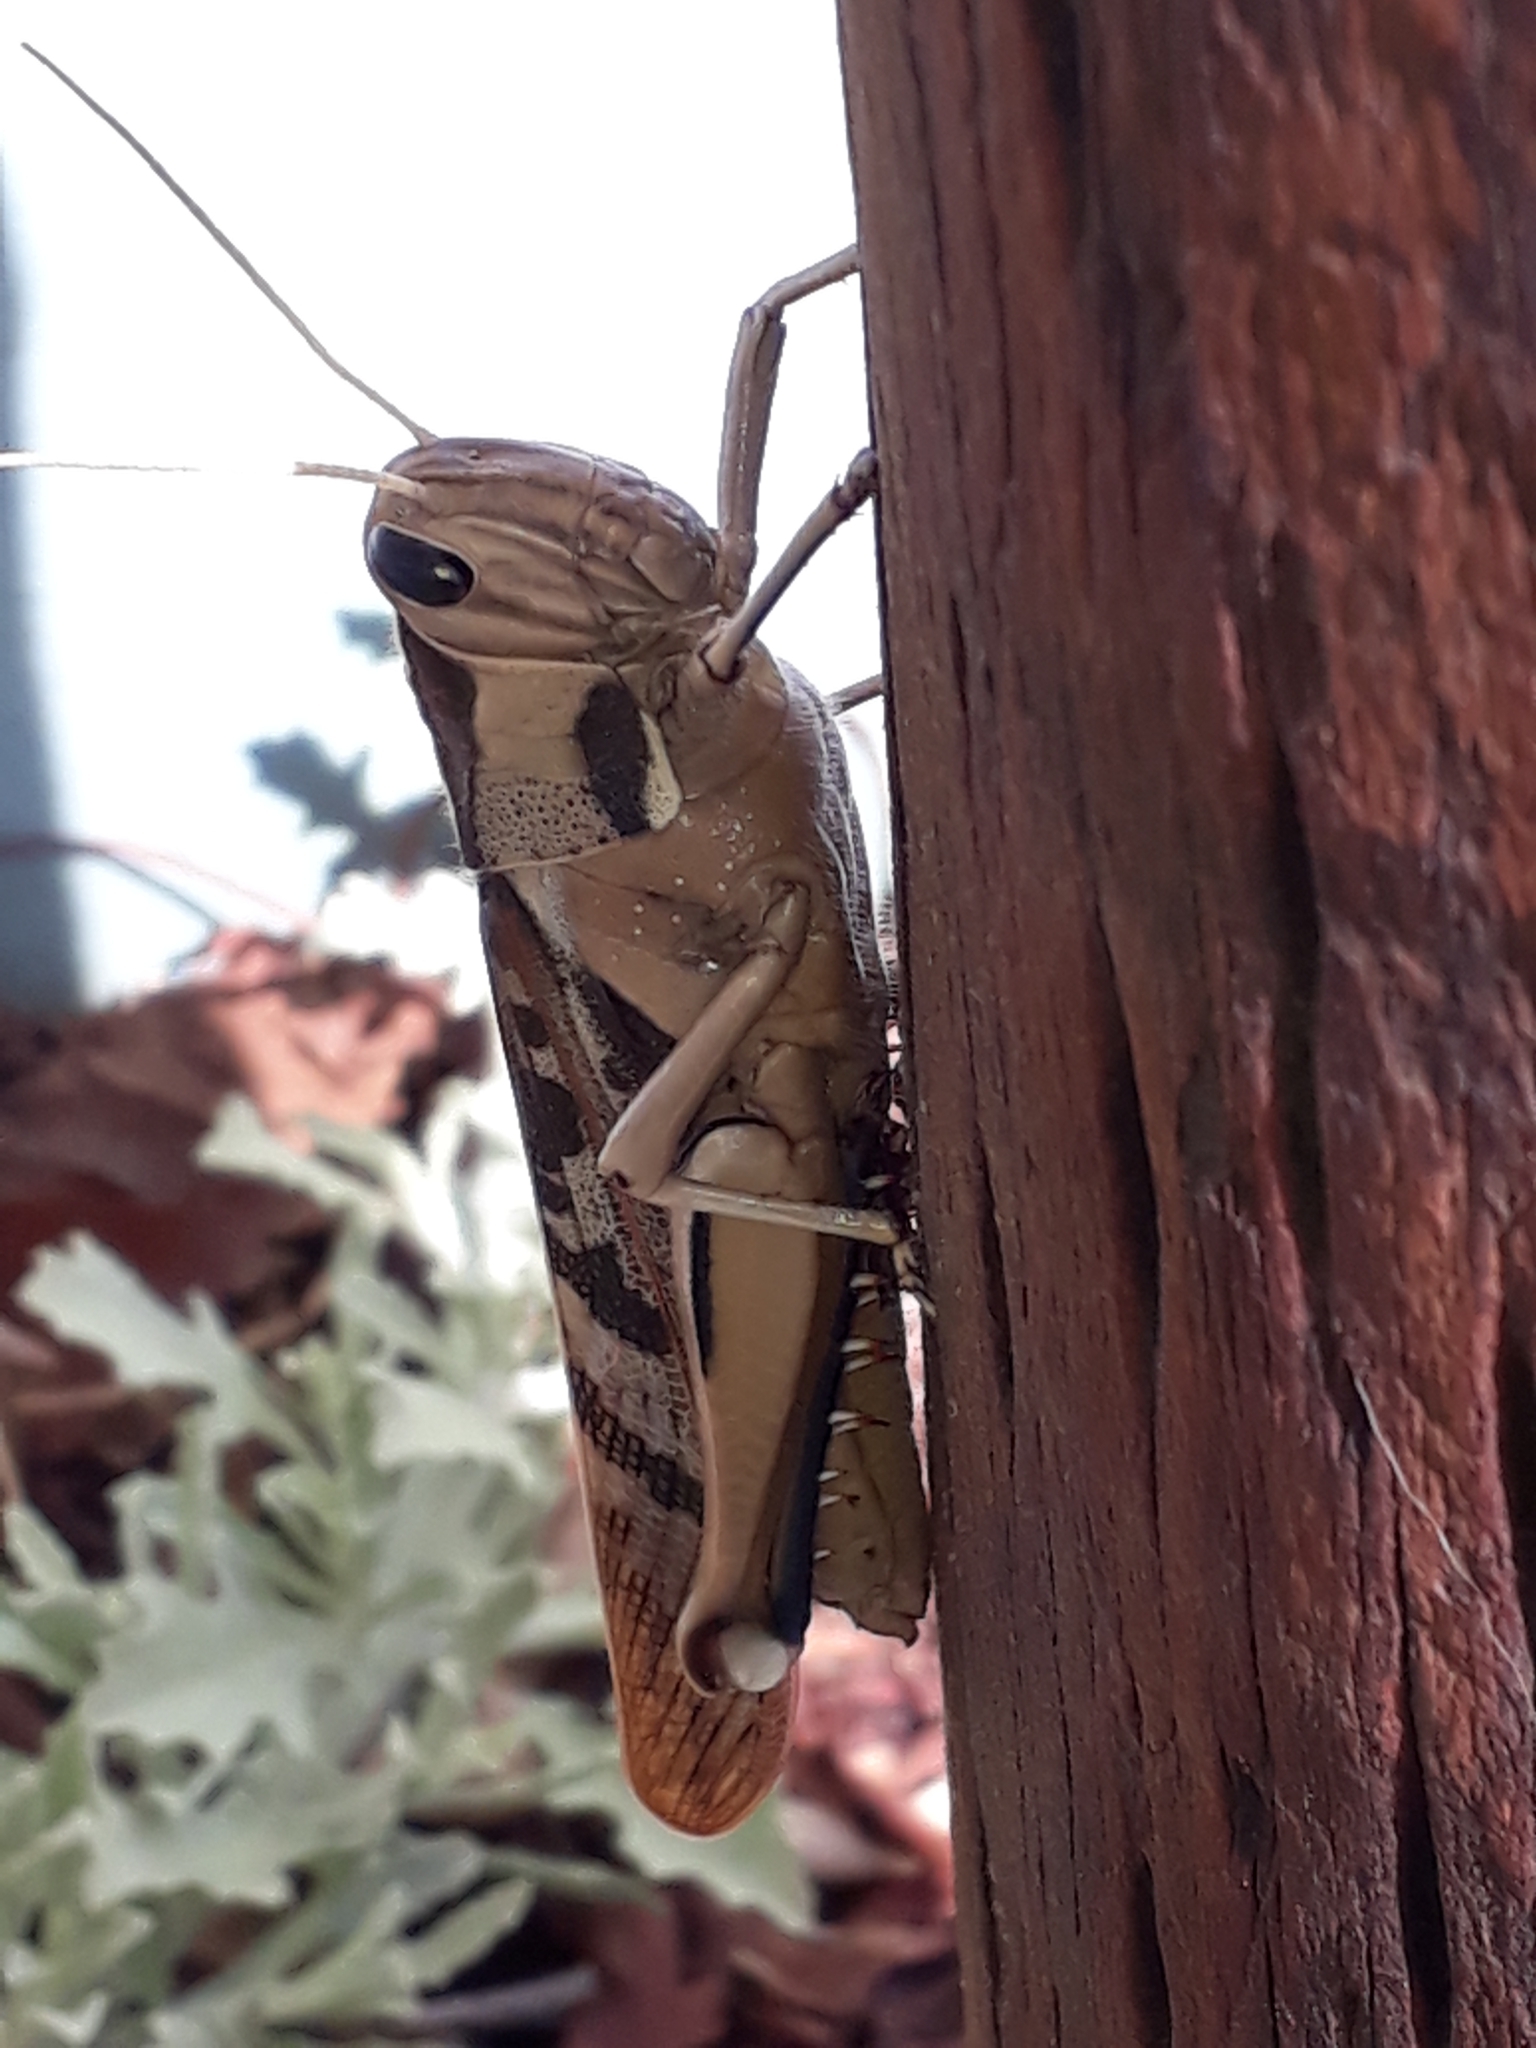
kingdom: Animalia
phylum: Arthropoda
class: Insecta
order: Orthoptera
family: Acrididae
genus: Acanthacris
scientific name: Acanthacris ruficornis
